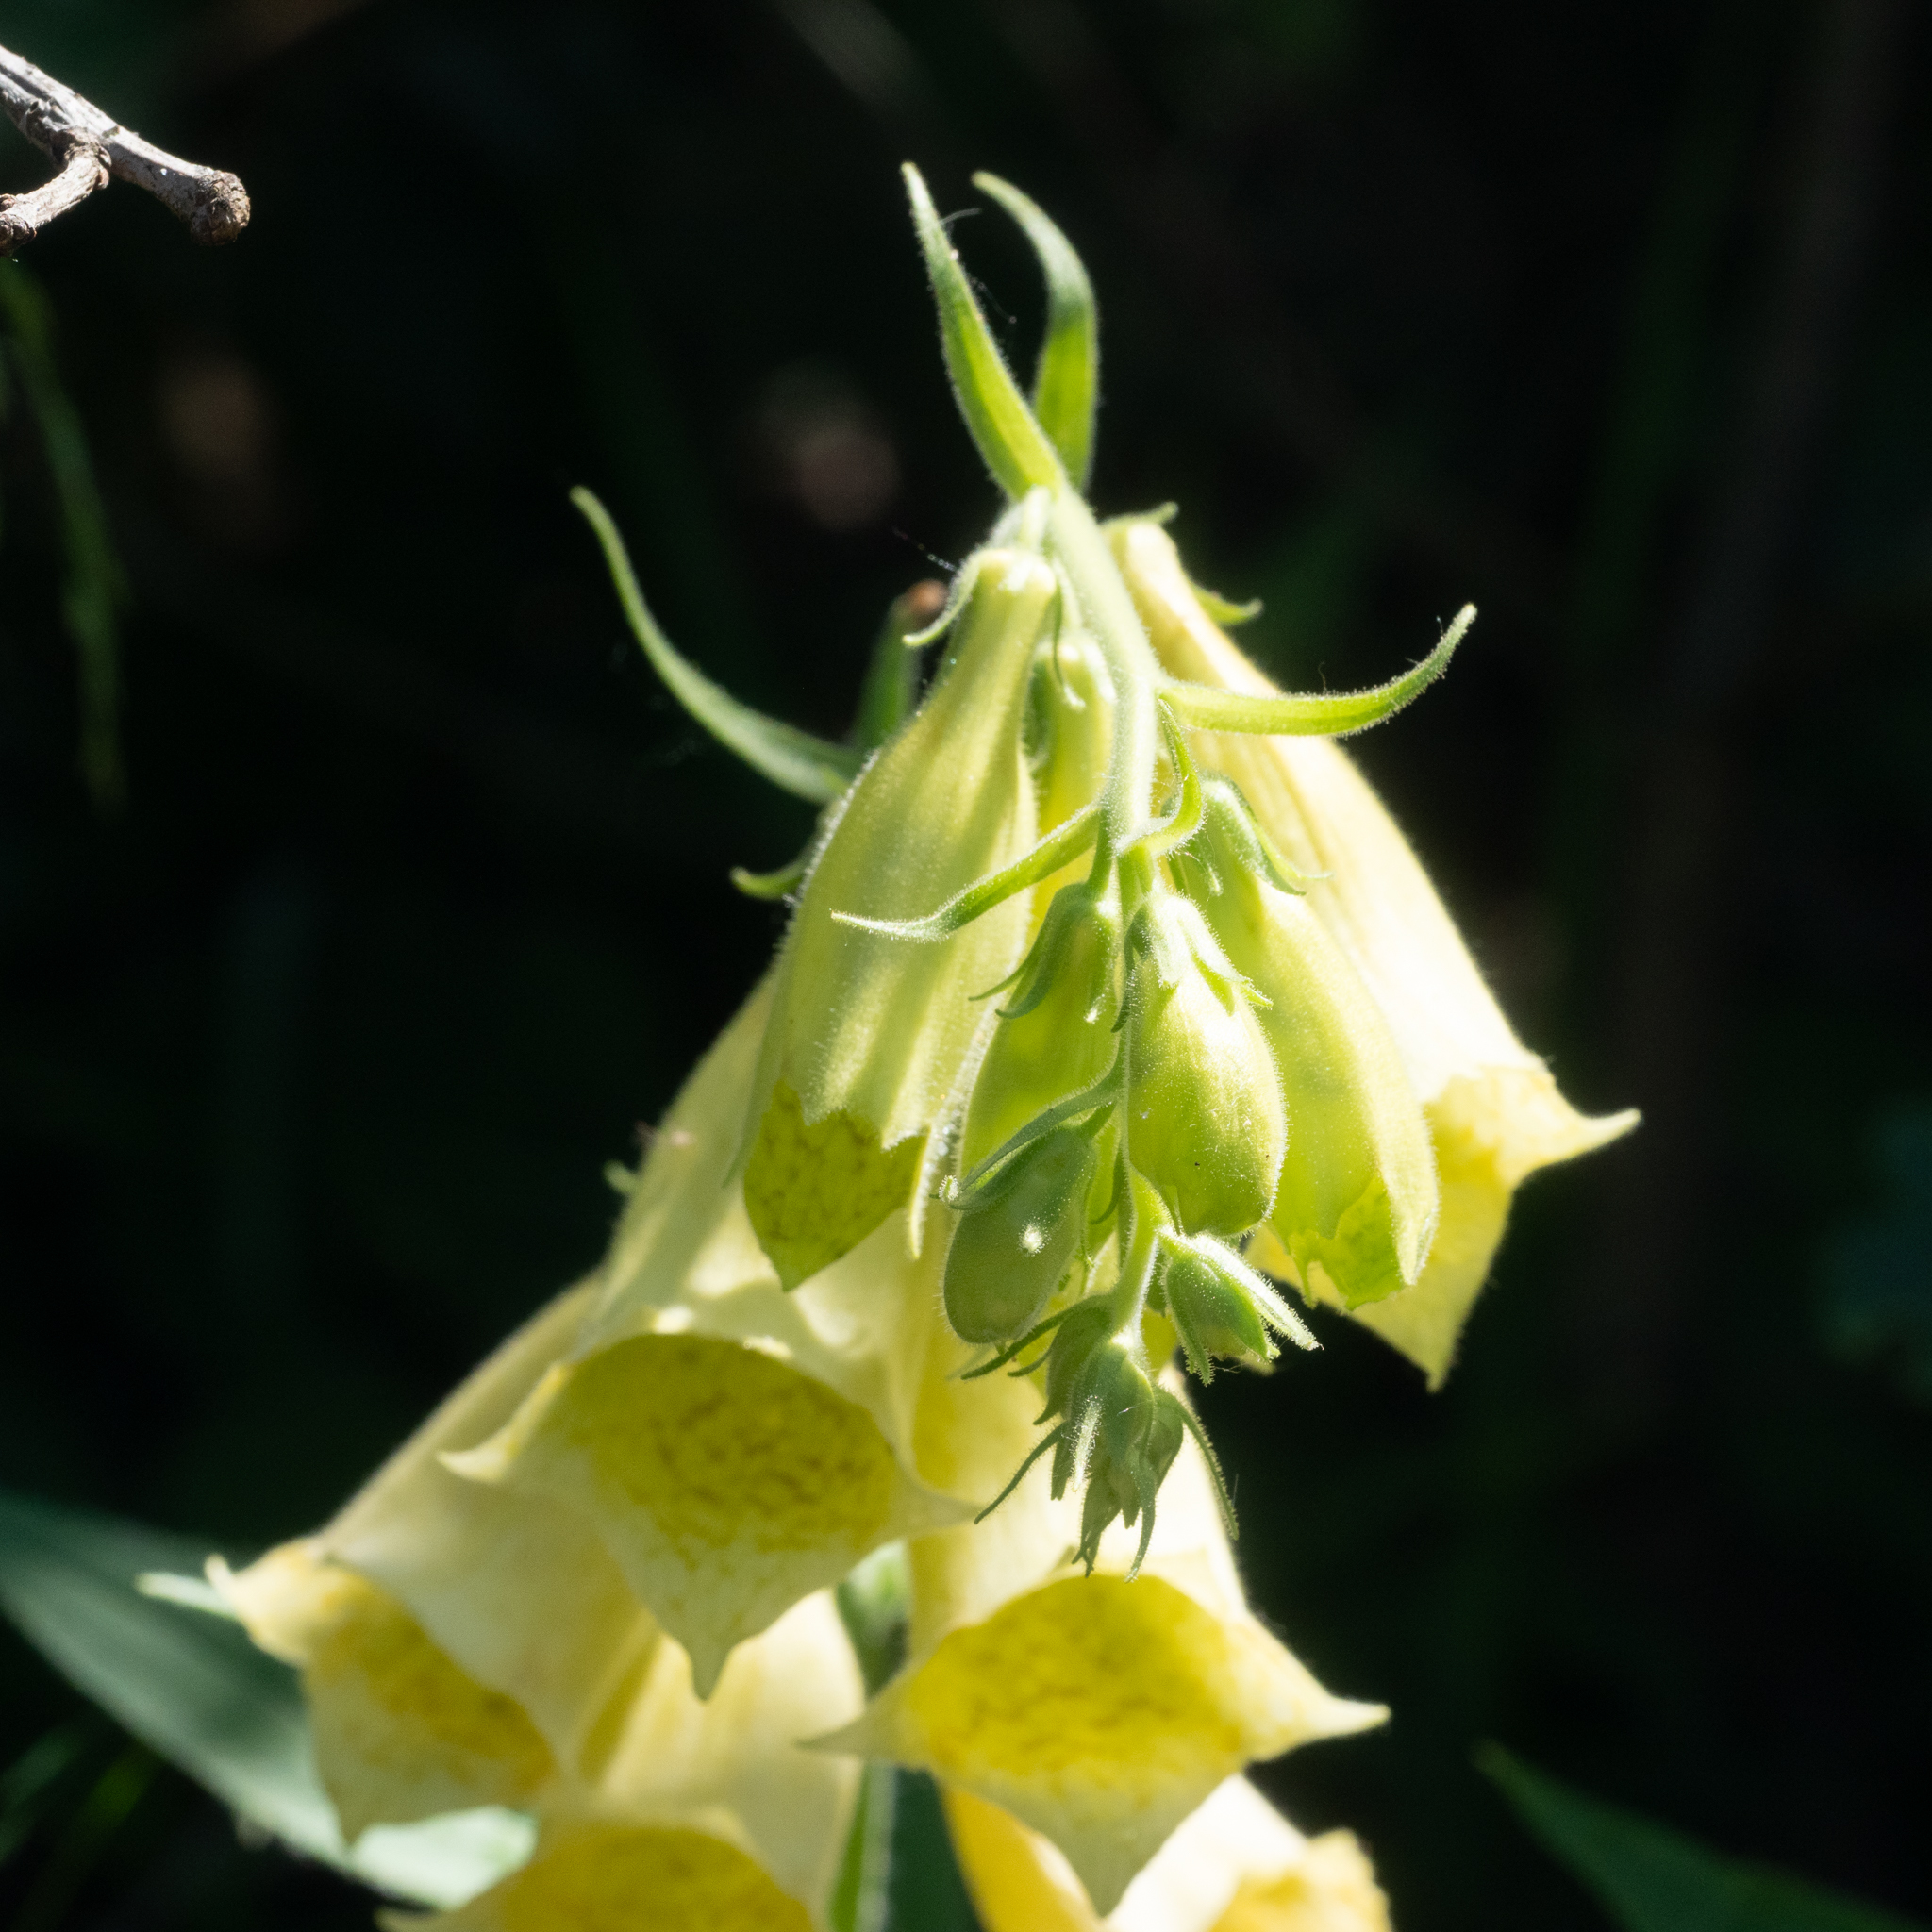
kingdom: Plantae
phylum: Tracheophyta
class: Magnoliopsida
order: Lamiales
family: Plantaginaceae
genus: Digitalis
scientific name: Digitalis grandiflora
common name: Yellow foxglove
